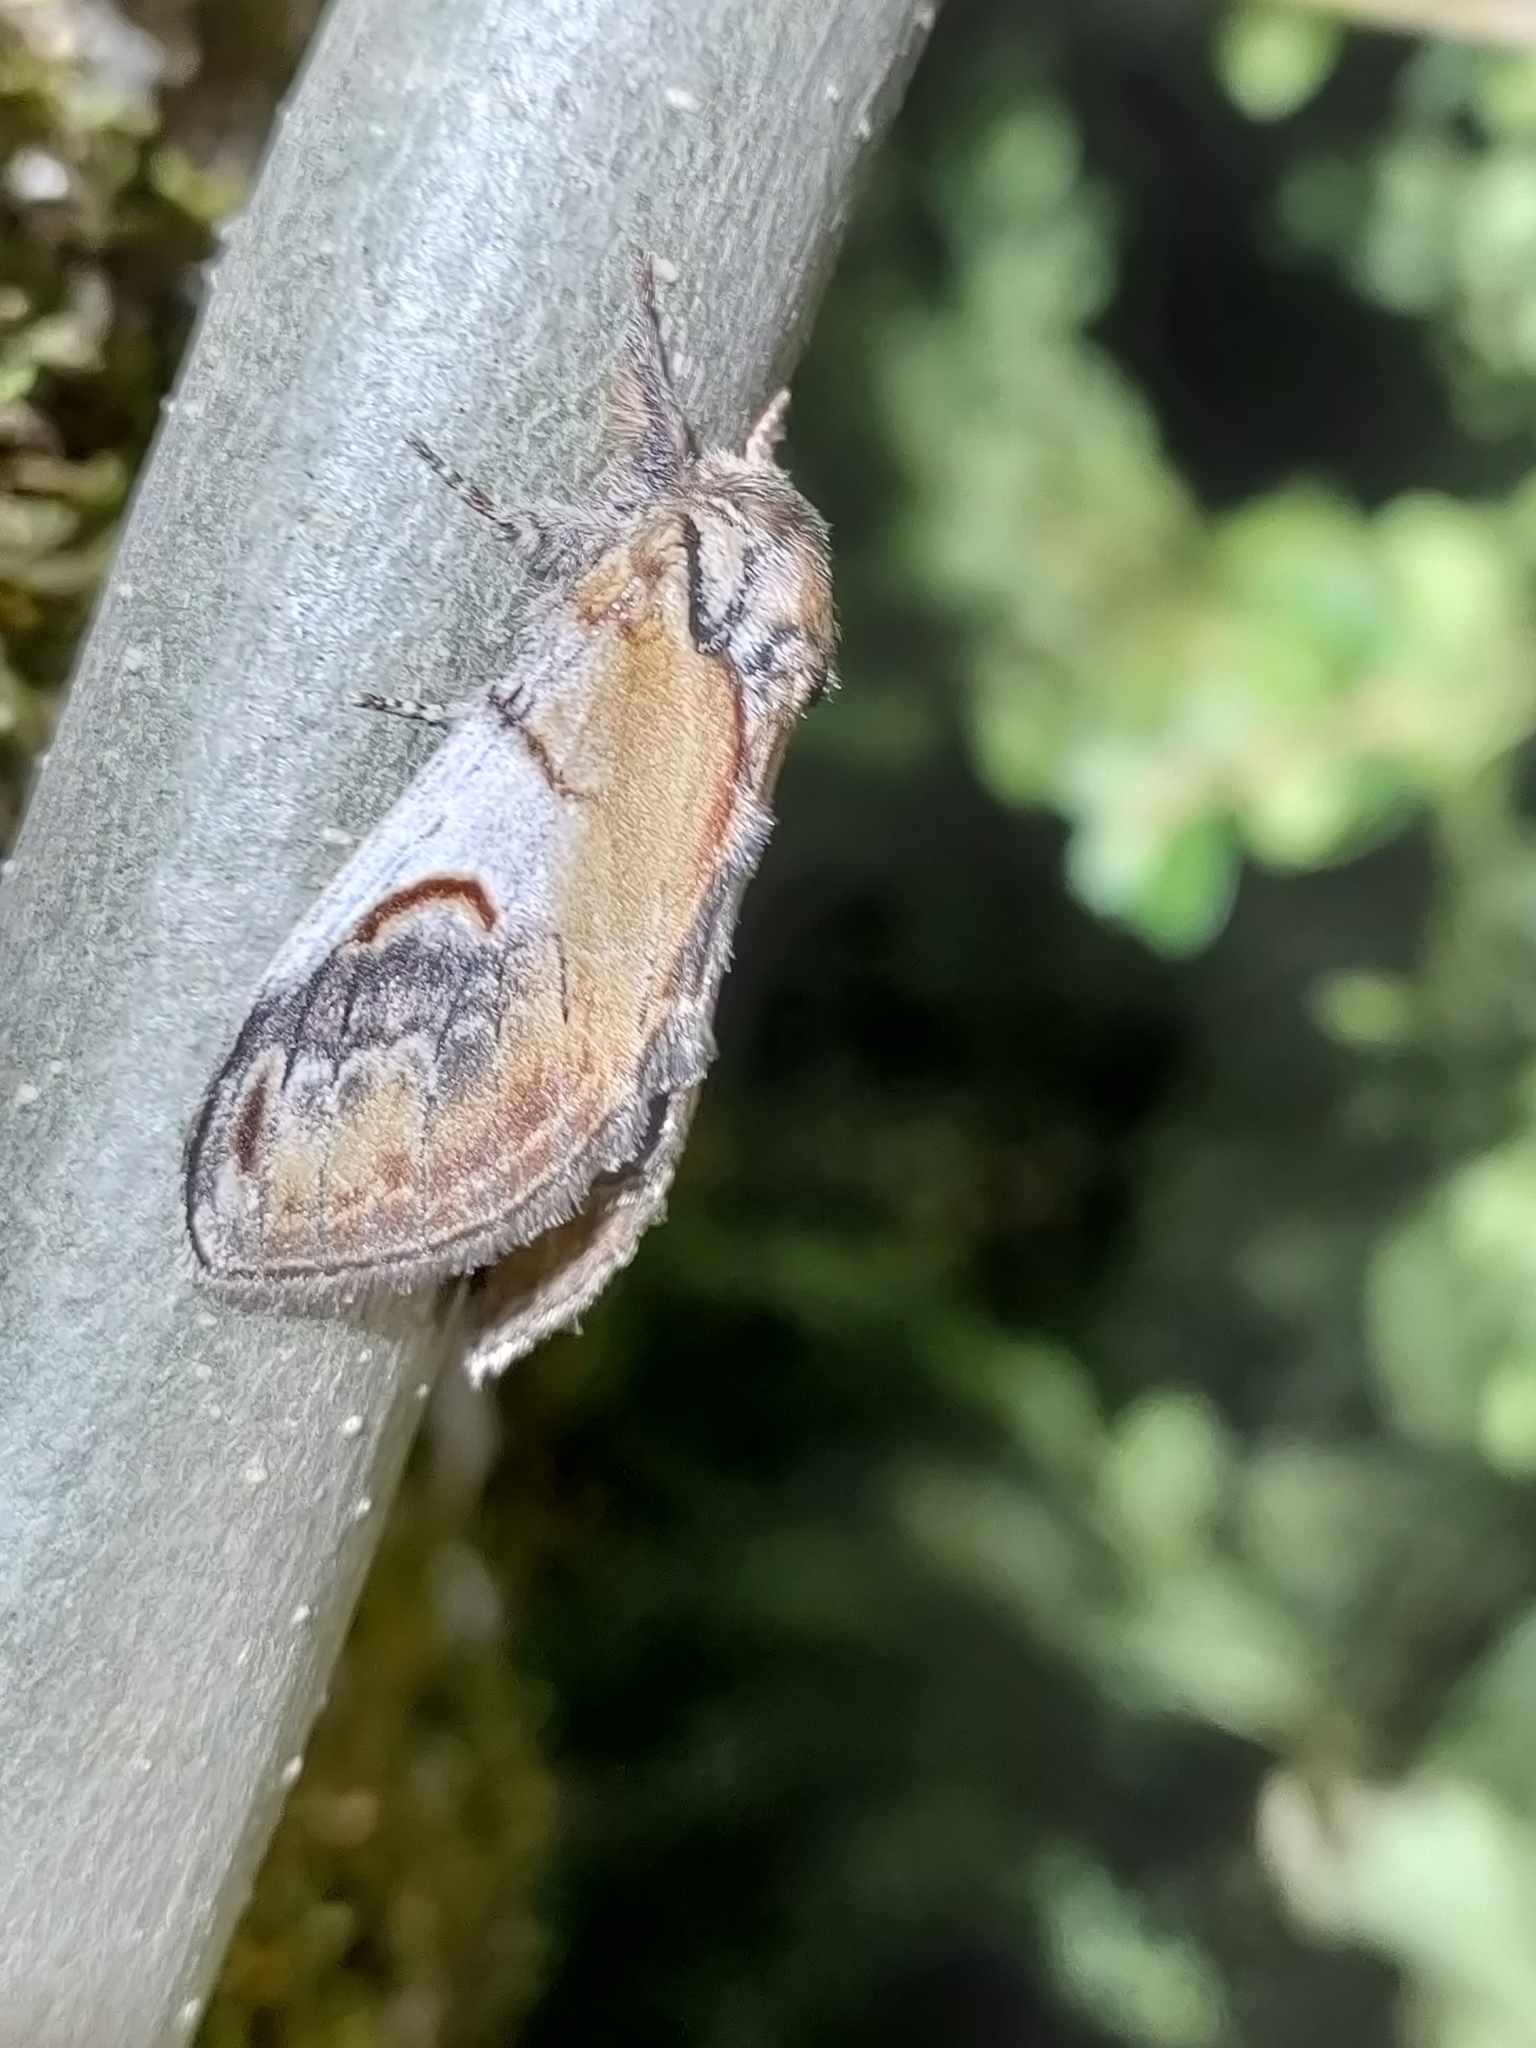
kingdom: Animalia
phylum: Arthropoda
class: Insecta
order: Lepidoptera
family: Notodontidae
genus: Notodonta
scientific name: Notodonta ziczac
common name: Pebble prominent
